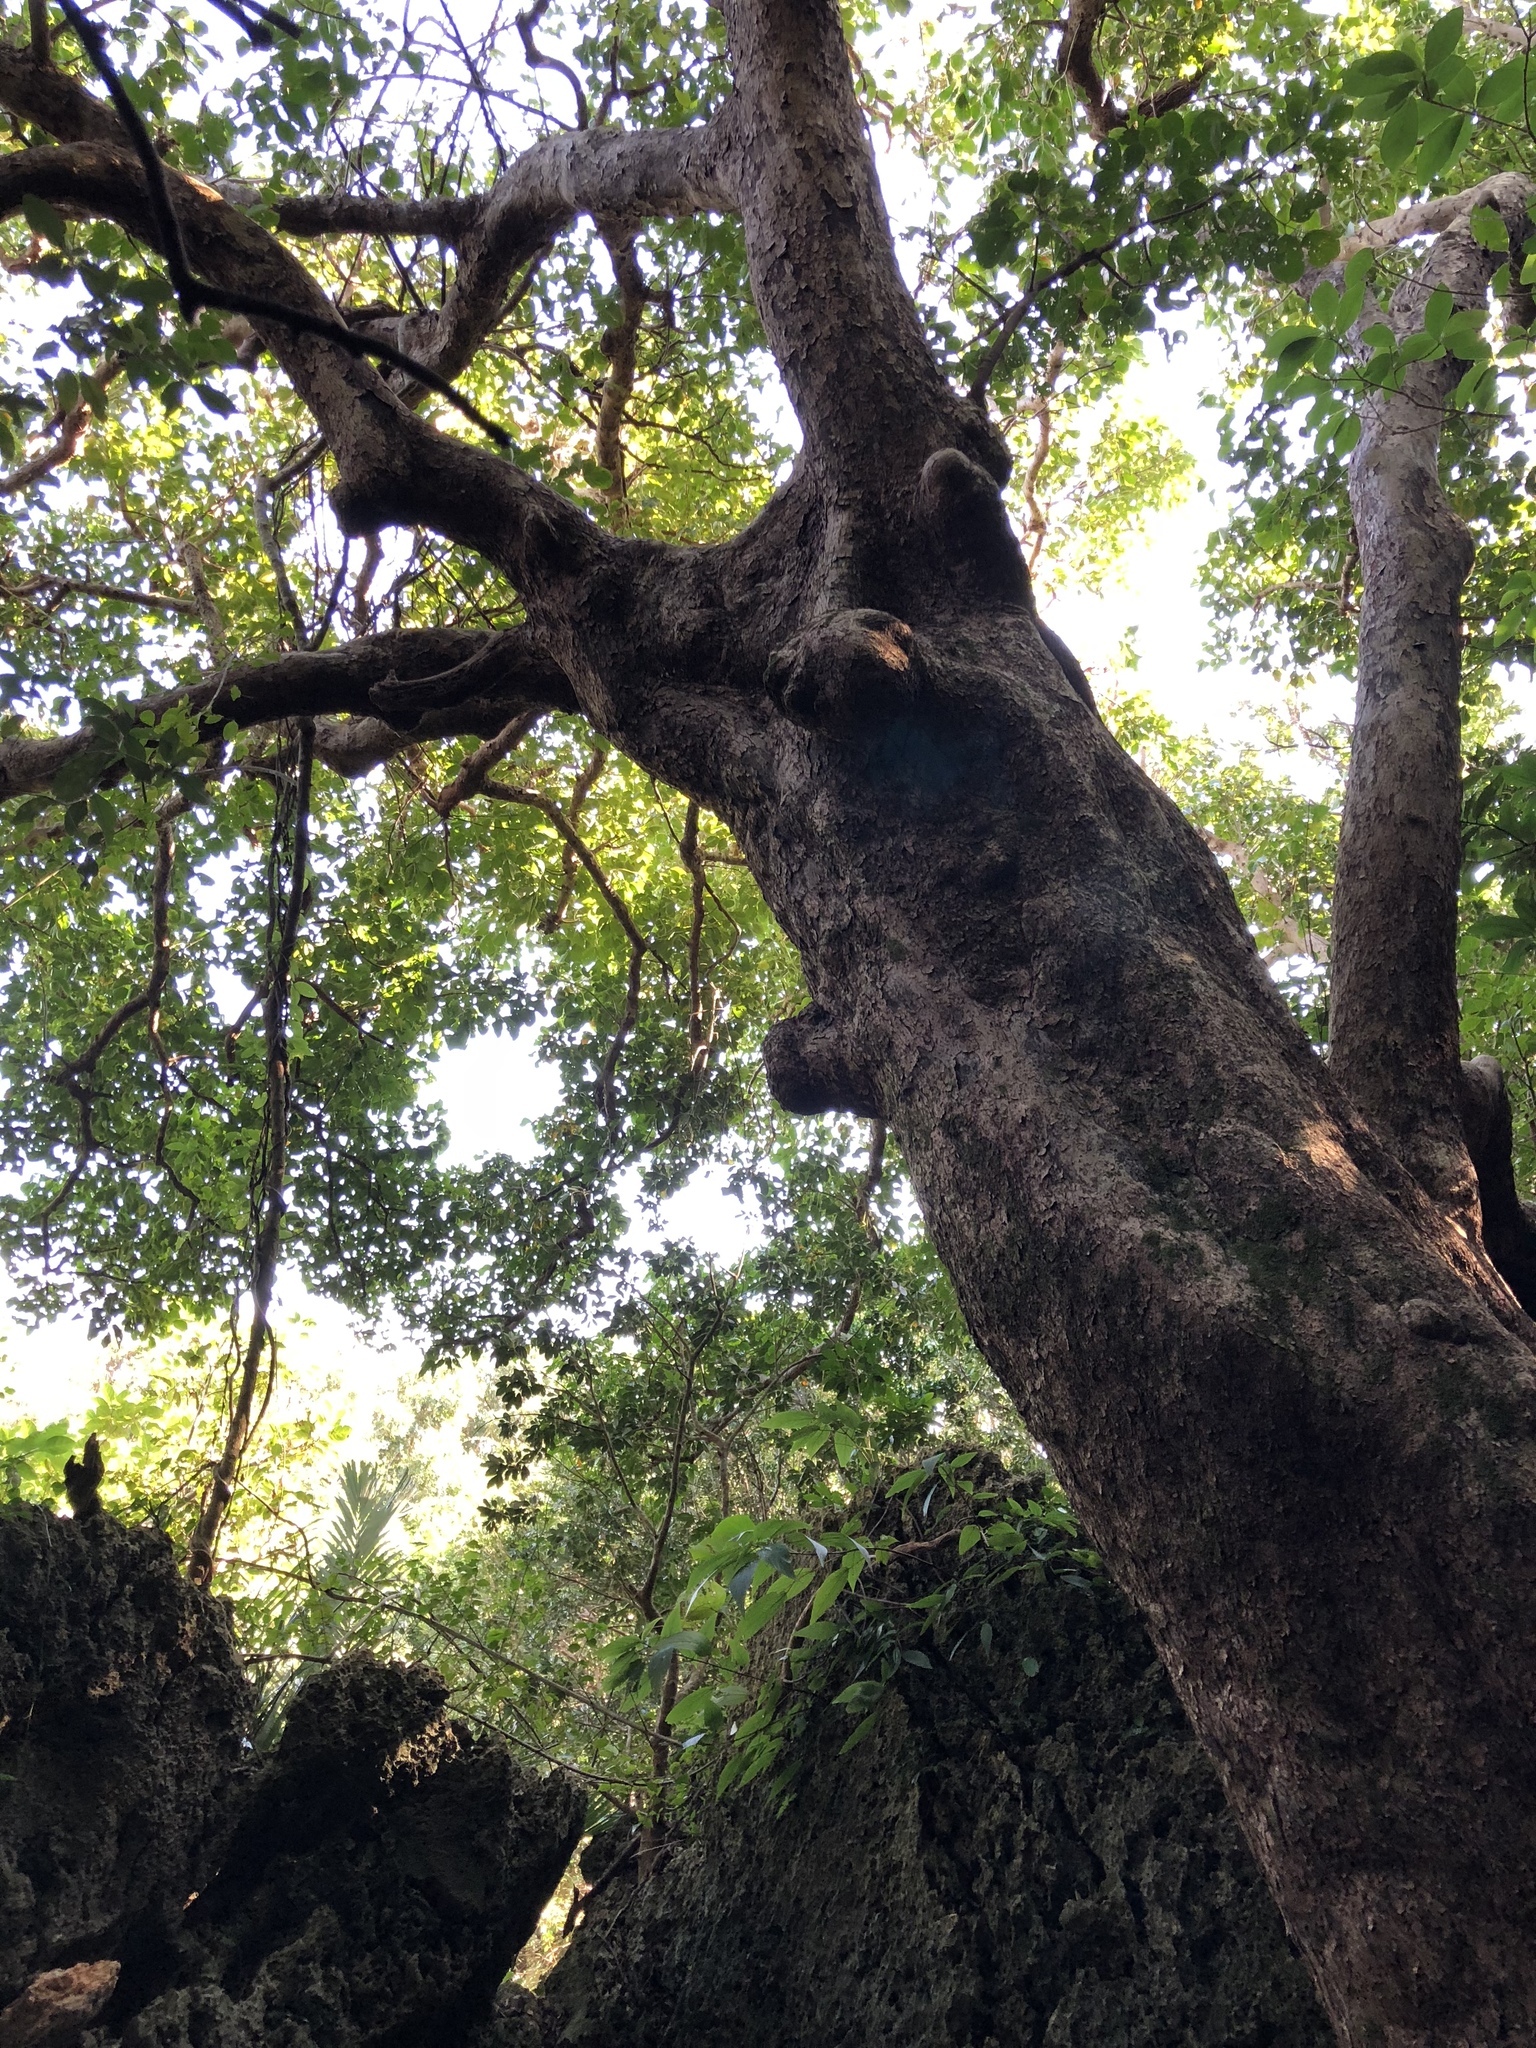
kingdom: Plantae
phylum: Tracheophyta
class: Magnoliopsida
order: Malpighiales
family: Phyllanthaceae
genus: Bischofia
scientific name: Bischofia javanica
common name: Javanese bishopwood
